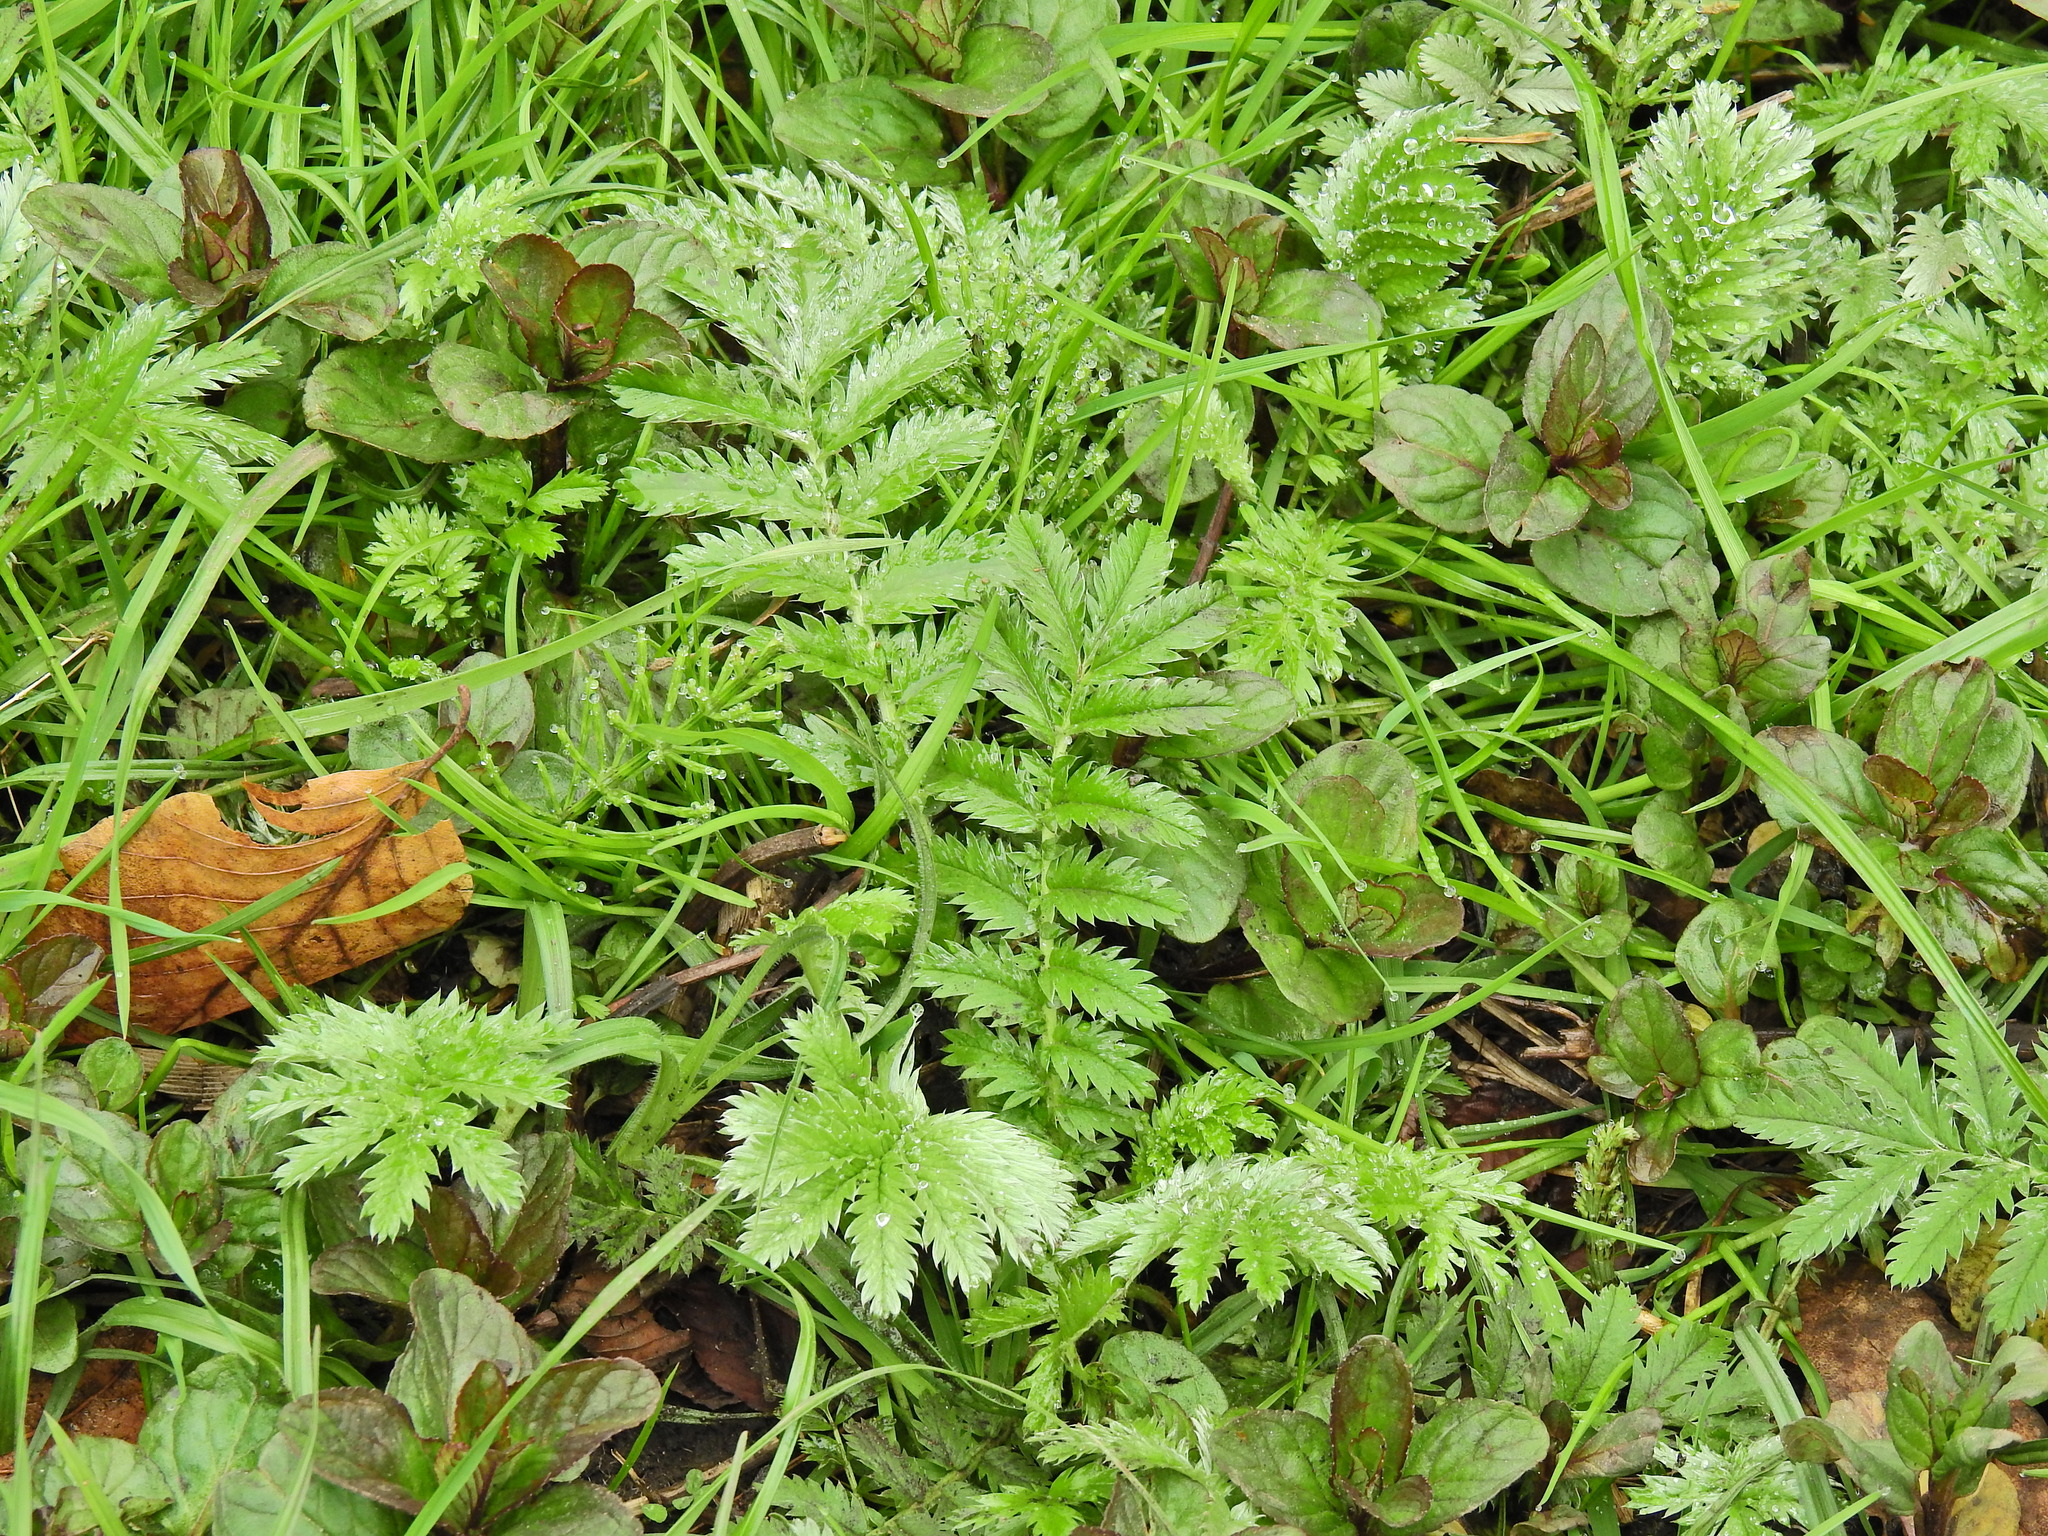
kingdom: Plantae
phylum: Tracheophyta
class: Magnoliopsida
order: Rosales
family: Rosaceae
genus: Argentina
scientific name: Argentina anserina
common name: Common silverweed
